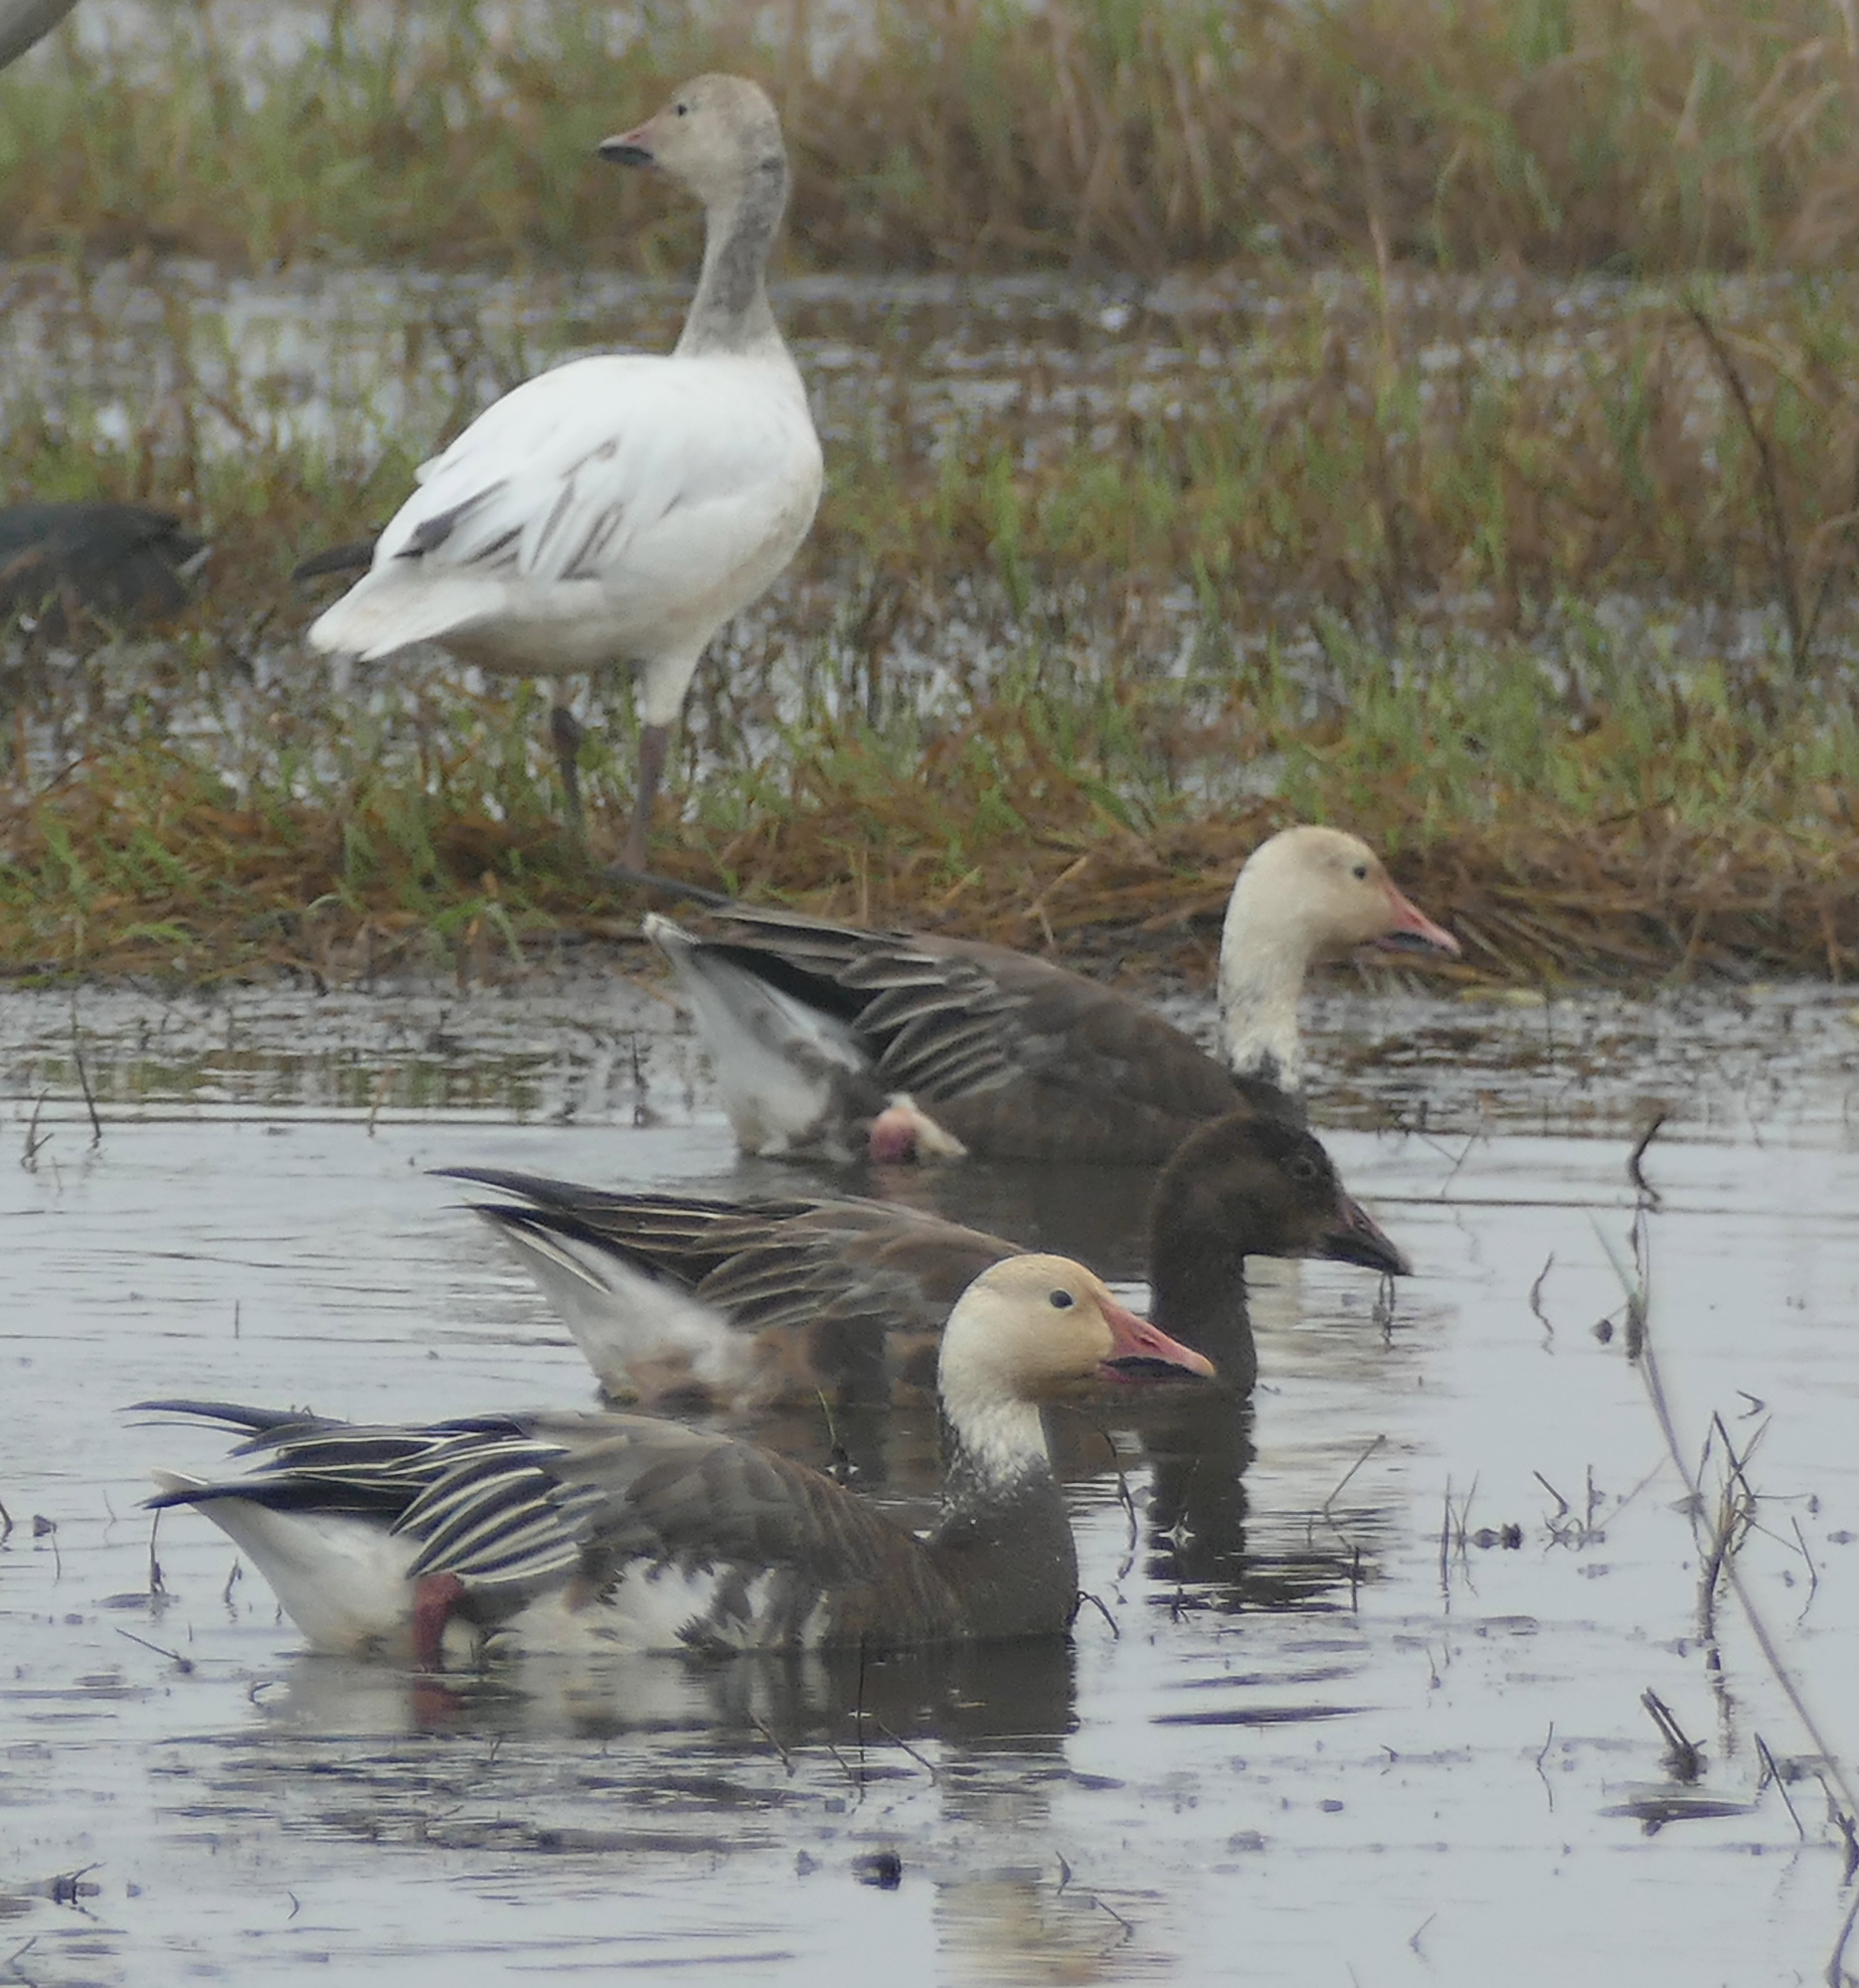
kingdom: Animalia
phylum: Chordata
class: Aves
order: Anseriformes
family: Anatidae
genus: Anser
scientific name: Anser caerulescens
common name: Snow goose
